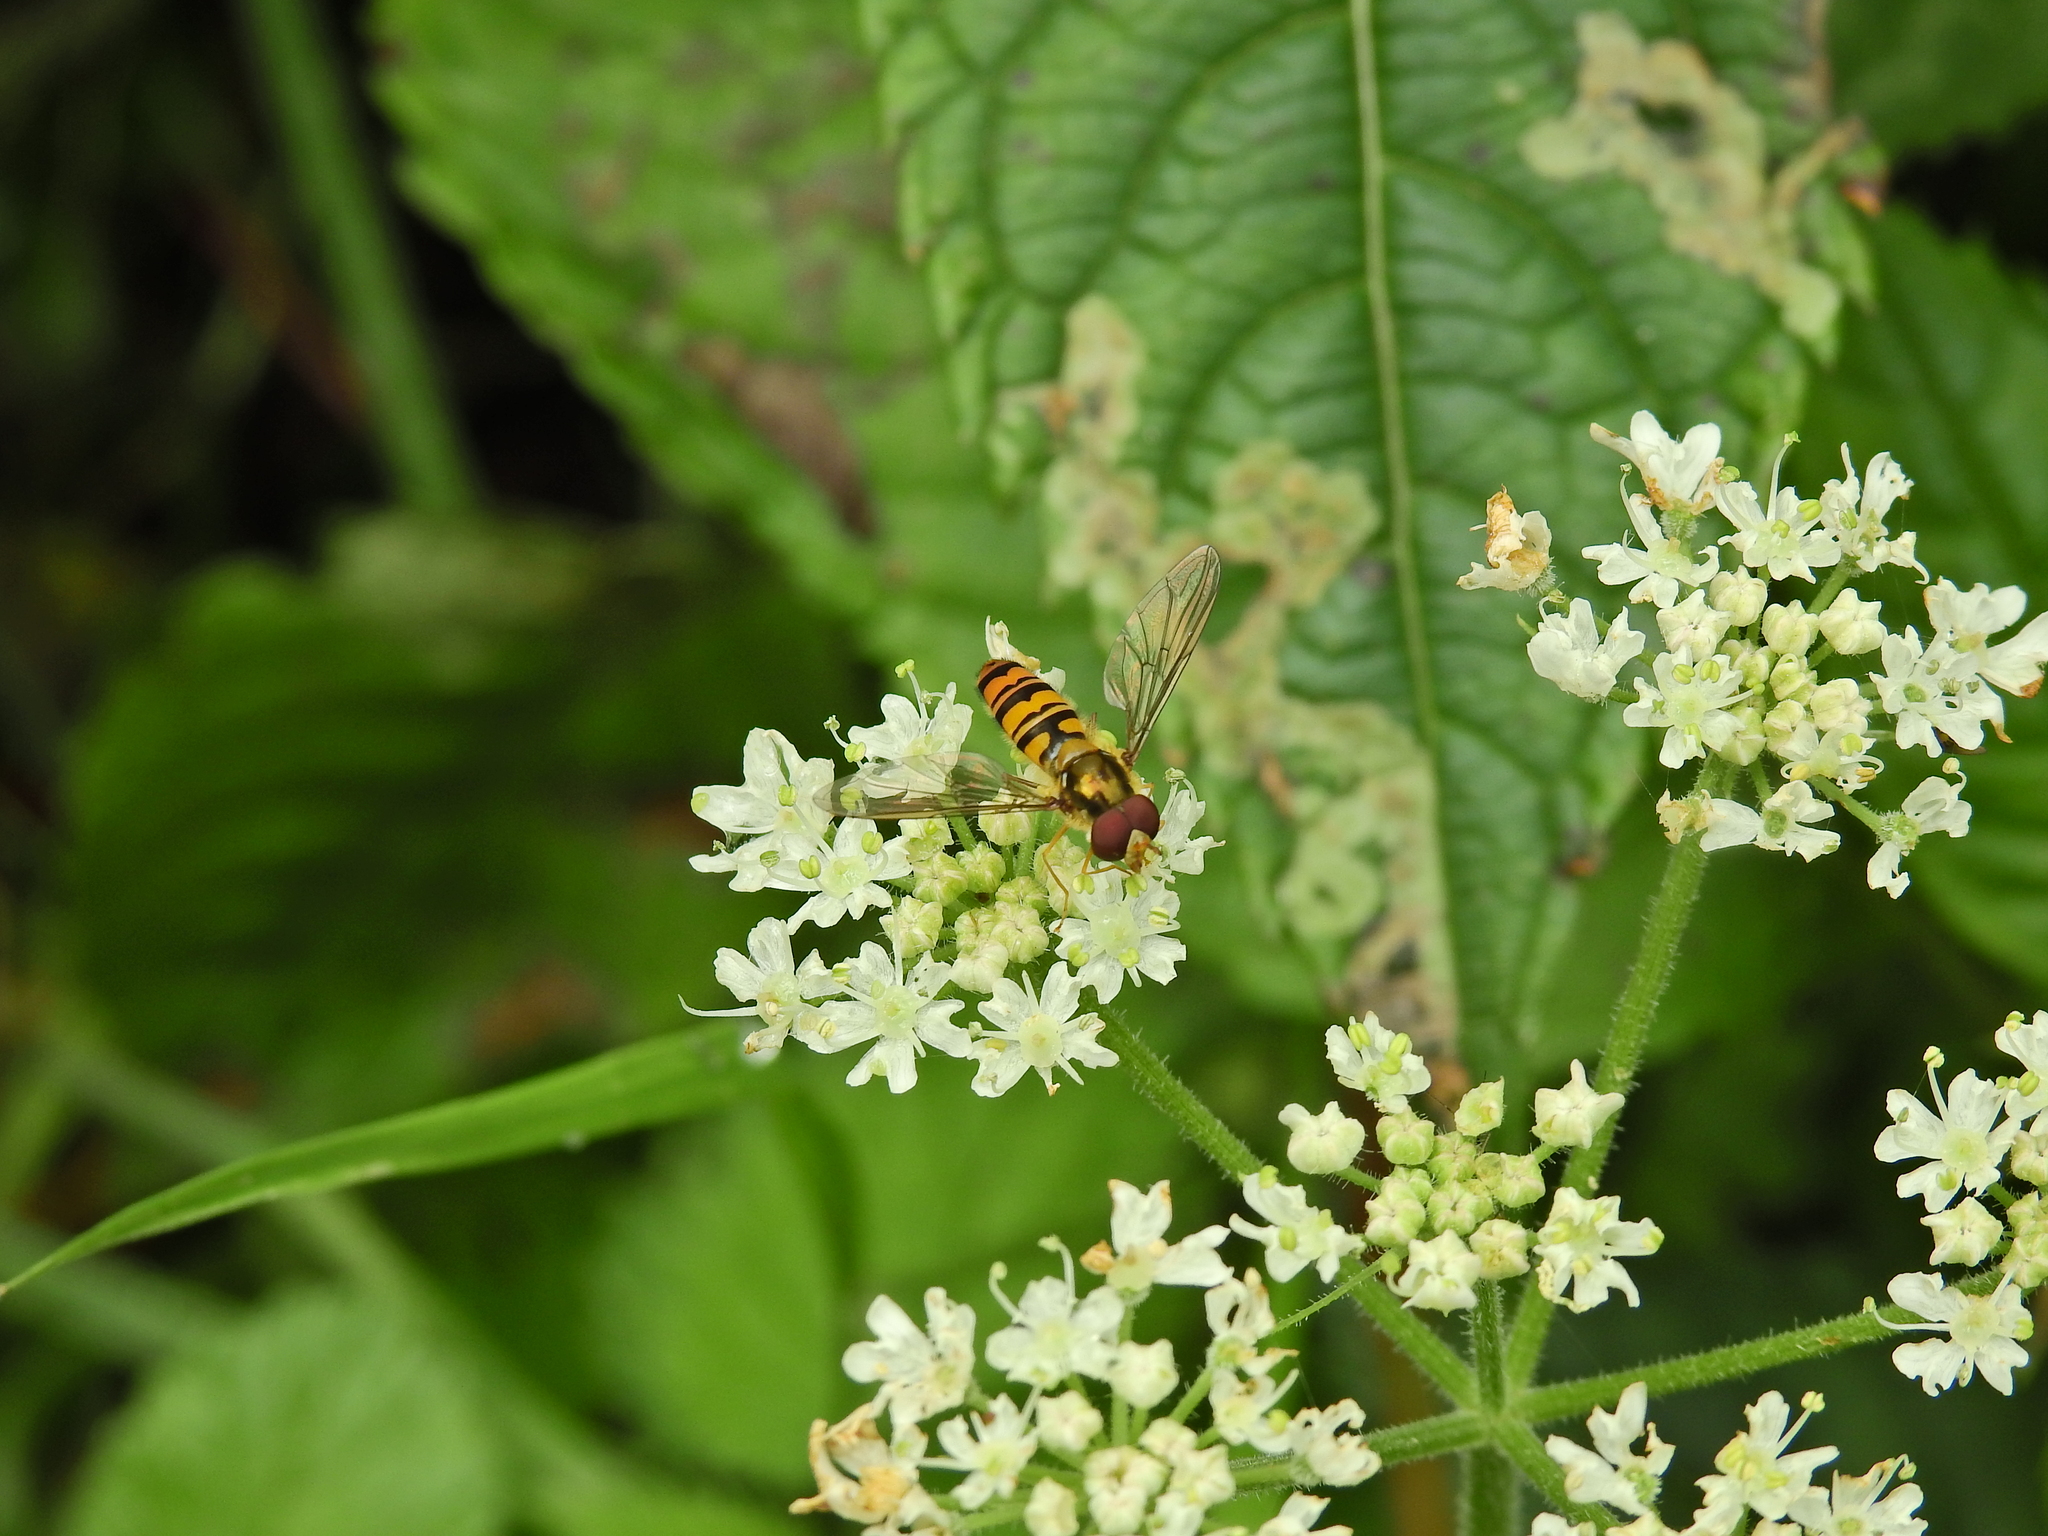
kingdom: Animalia
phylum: Arthropoda
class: Insecta
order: Diptera
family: Syrphidae
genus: Episyrphus
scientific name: Episyrphus balteatus
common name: Marmalade hoverfly
